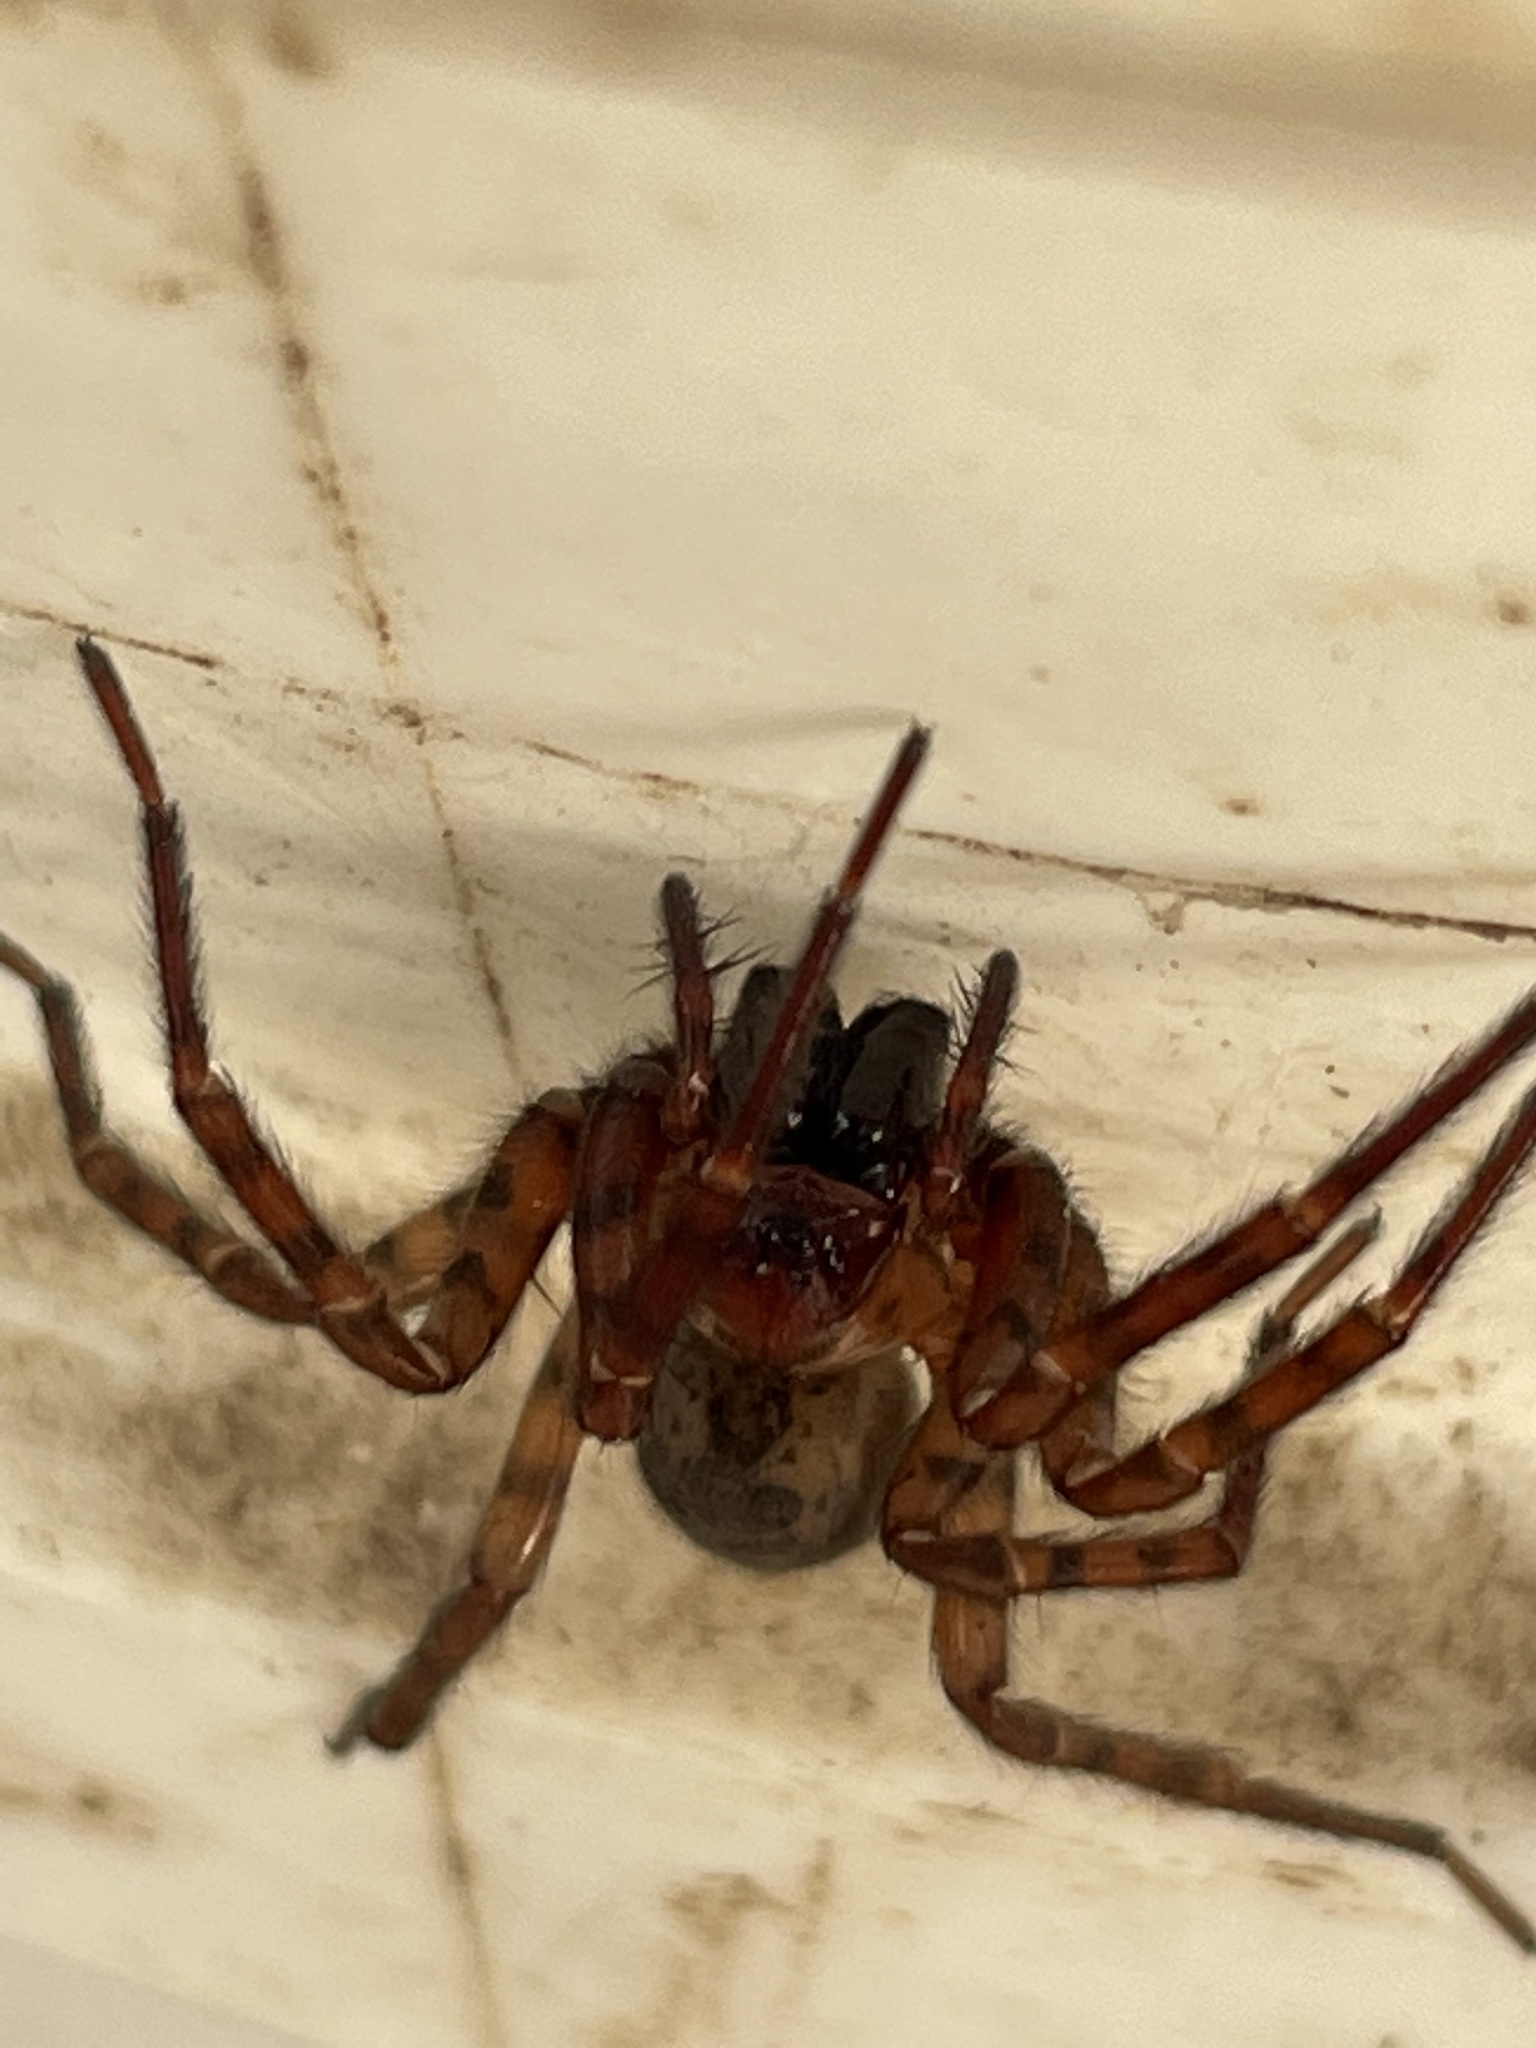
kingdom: Animalia
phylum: Arthropoda
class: Arachnida
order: Araneae
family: Agelenidae
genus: Coras
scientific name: Coras
